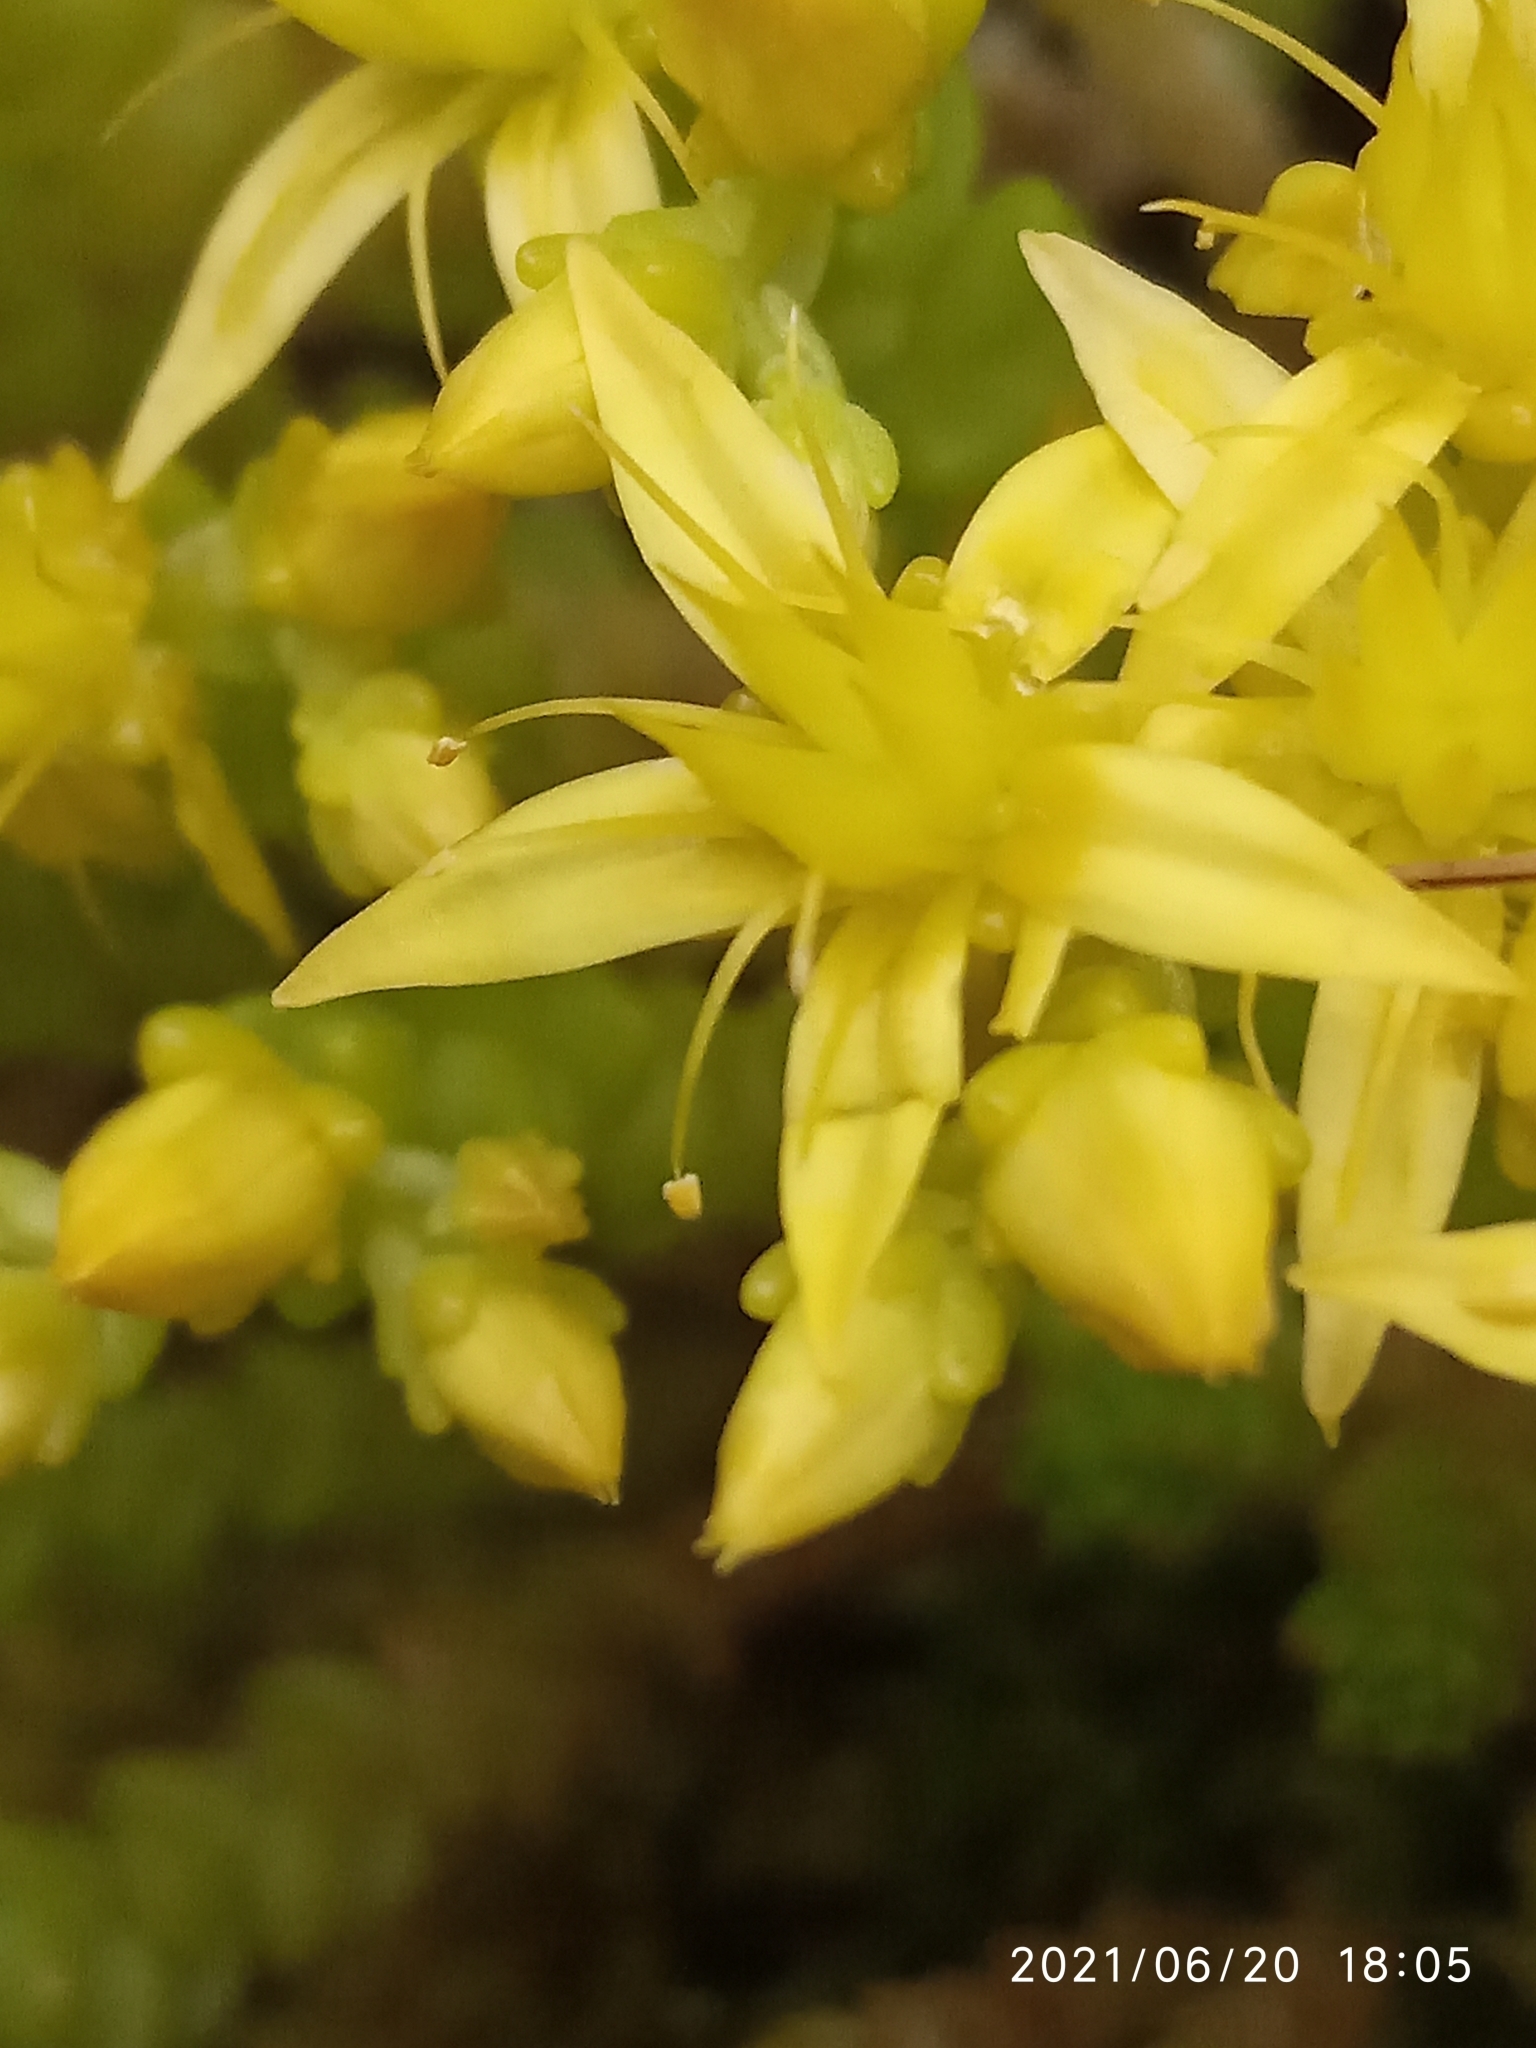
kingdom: Plantae
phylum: Tracheophyta
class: Magnoliopsida
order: Saxifragales
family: Crassulaceae
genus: Sedum
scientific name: Sedum acre
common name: Biting stonecrop
